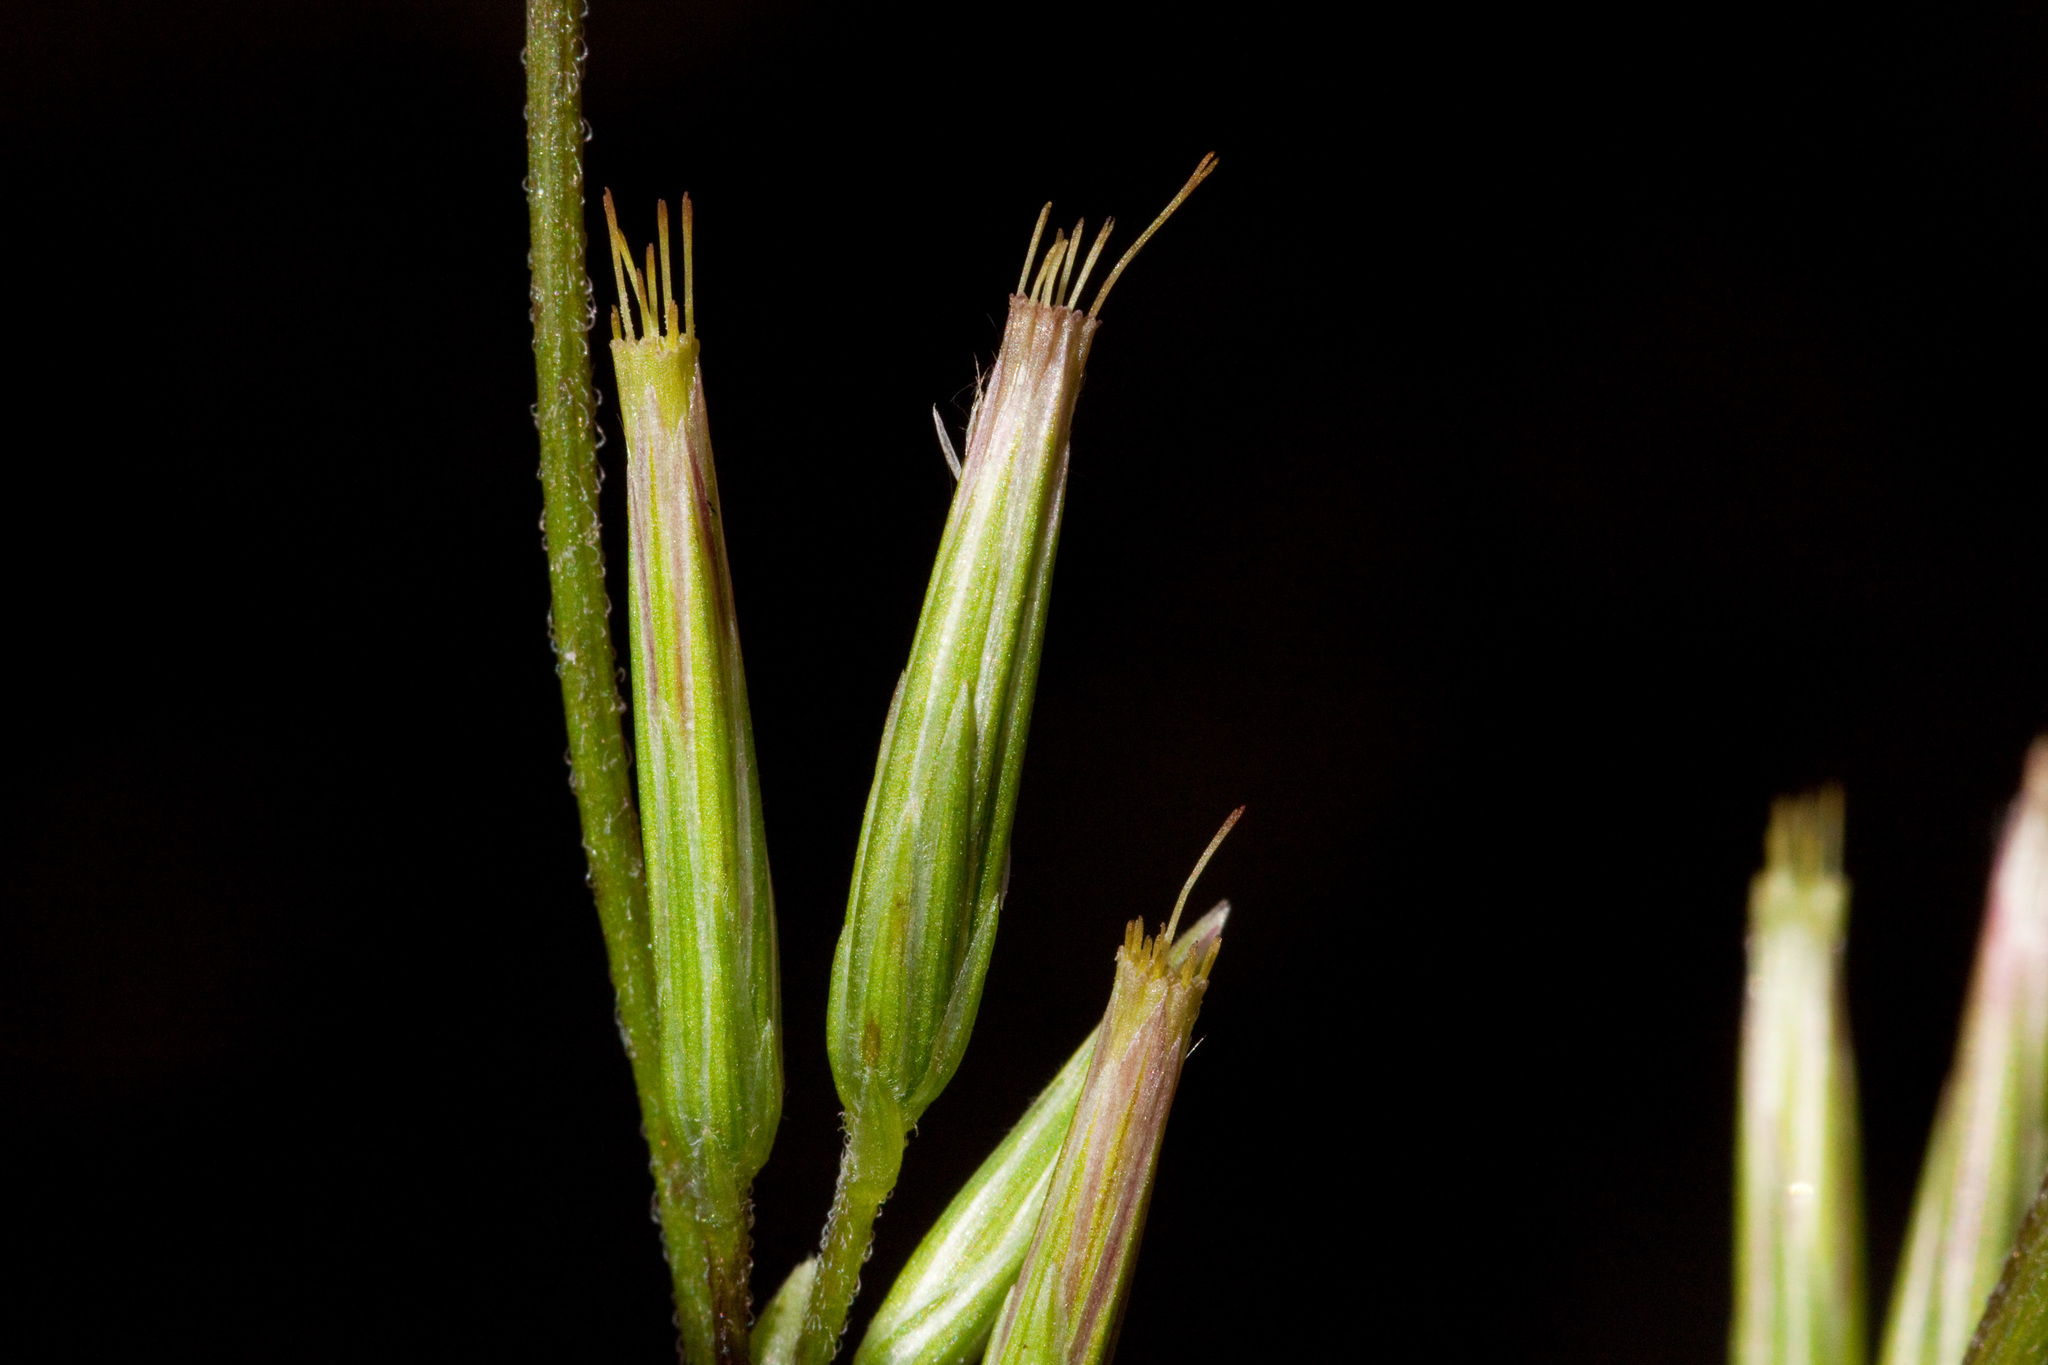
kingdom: Plantae
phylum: Tracheophyta
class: Magnoliopsida
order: Asterales
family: Asteraceae
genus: Carminatia
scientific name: Carminatia tenuiflora
